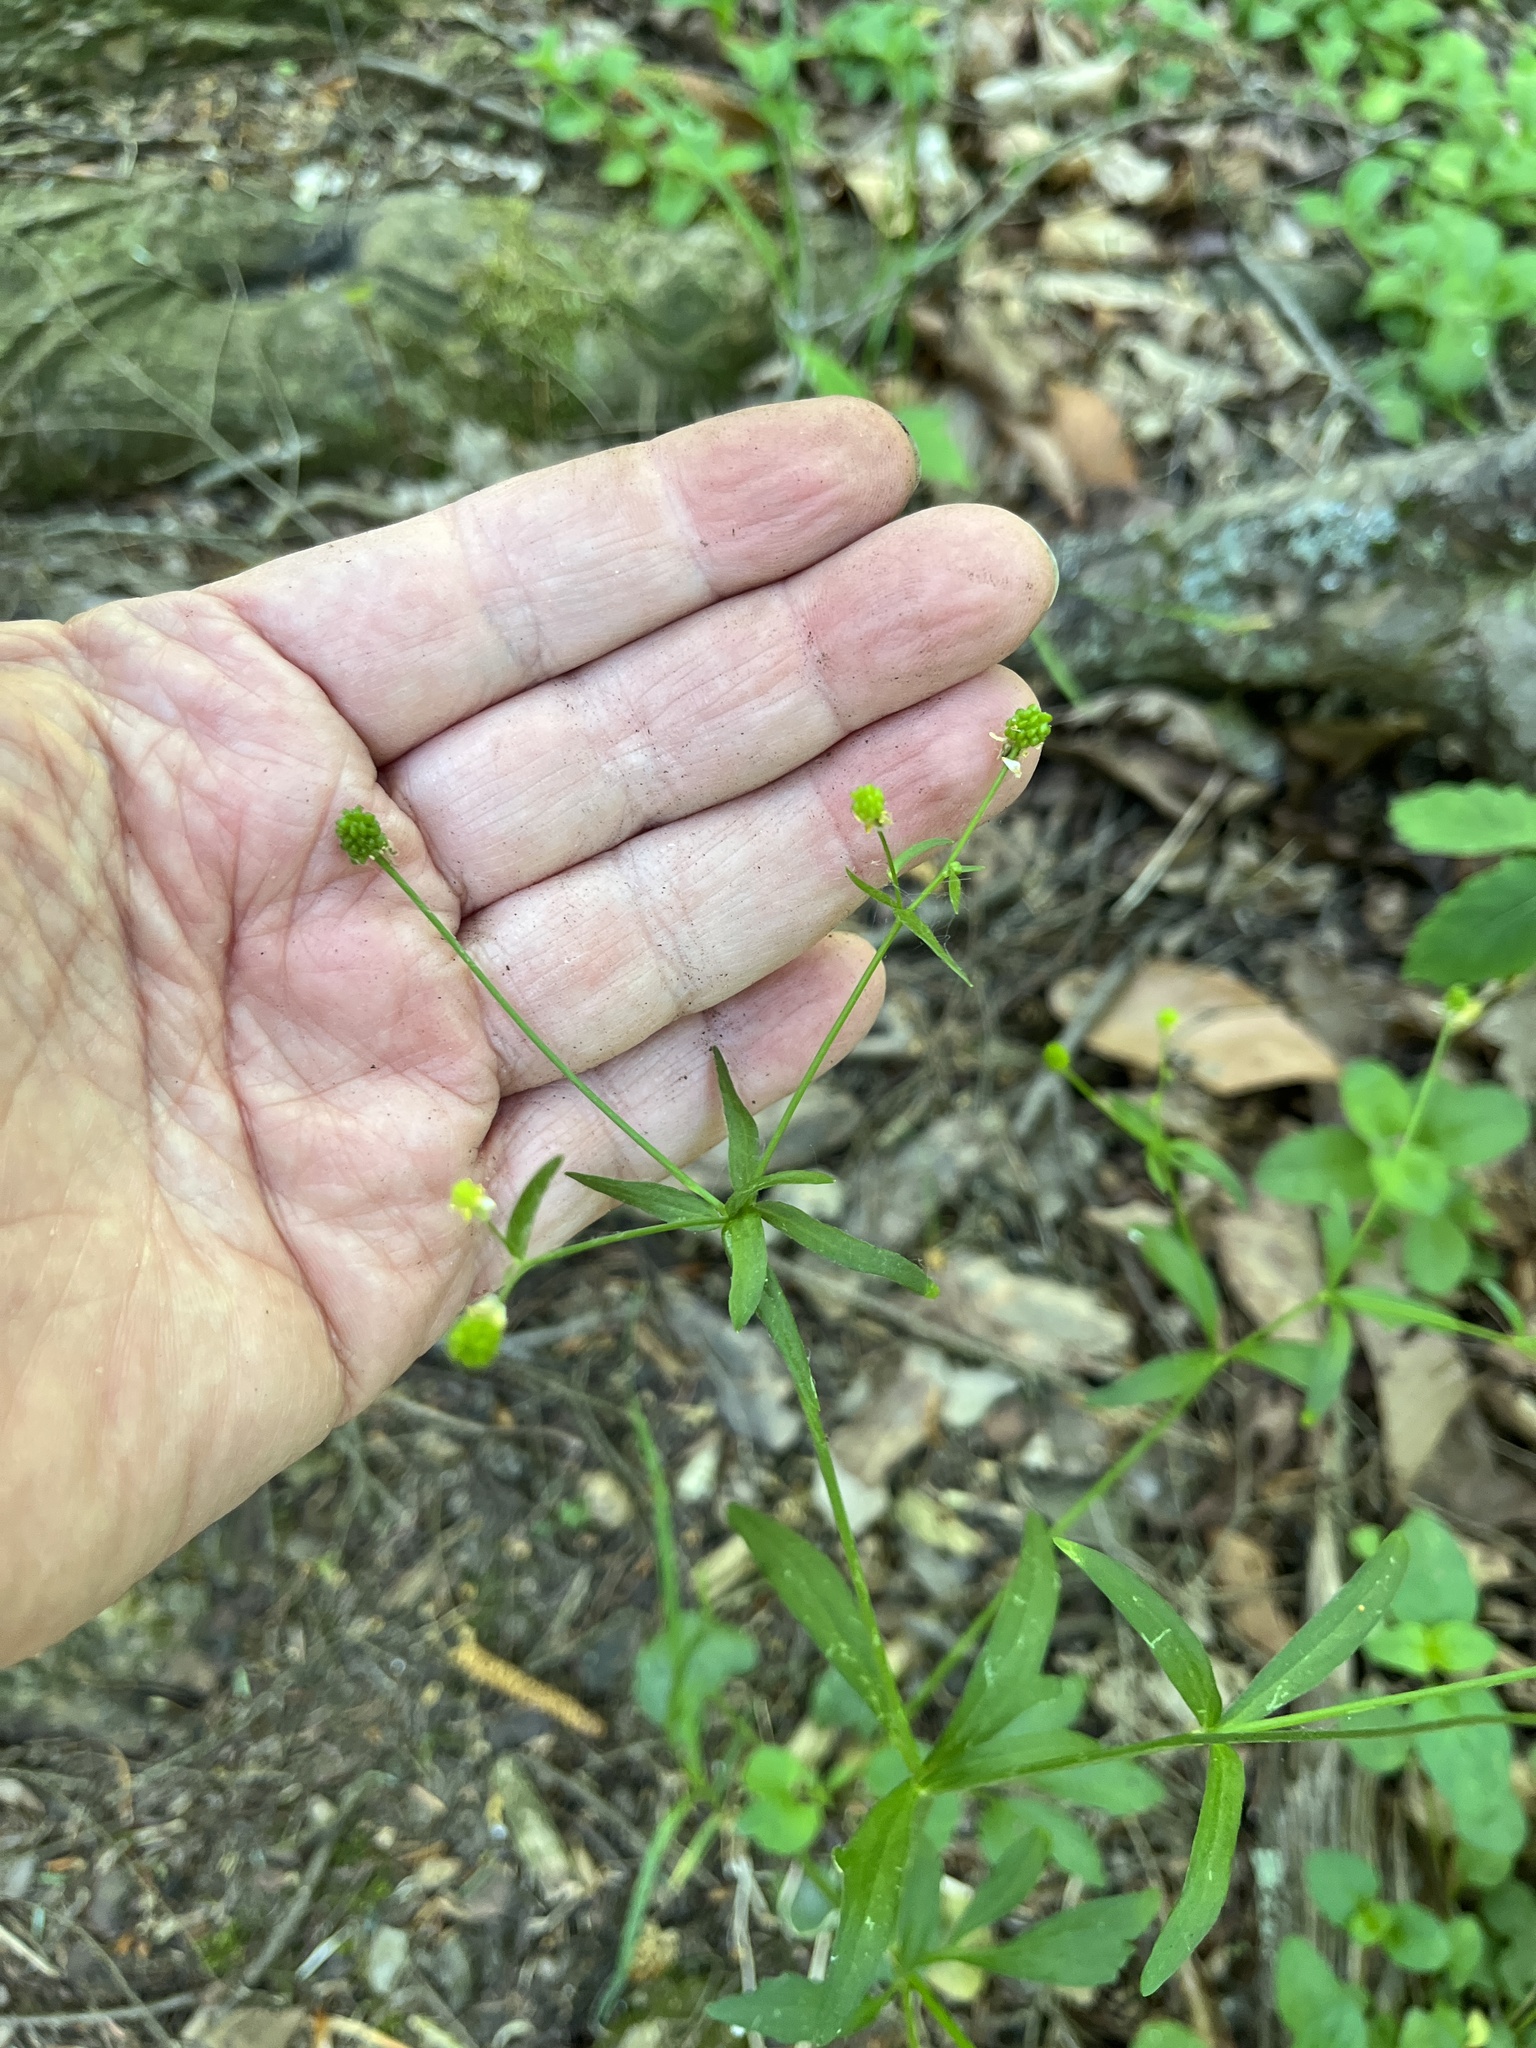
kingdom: Plantae
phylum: Tracheophyta
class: Magnoliopsida
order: Ranunculales
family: Ranunculaceae
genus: Ranunculus
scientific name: Ranunculus abortivus
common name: Early wood buttercup
